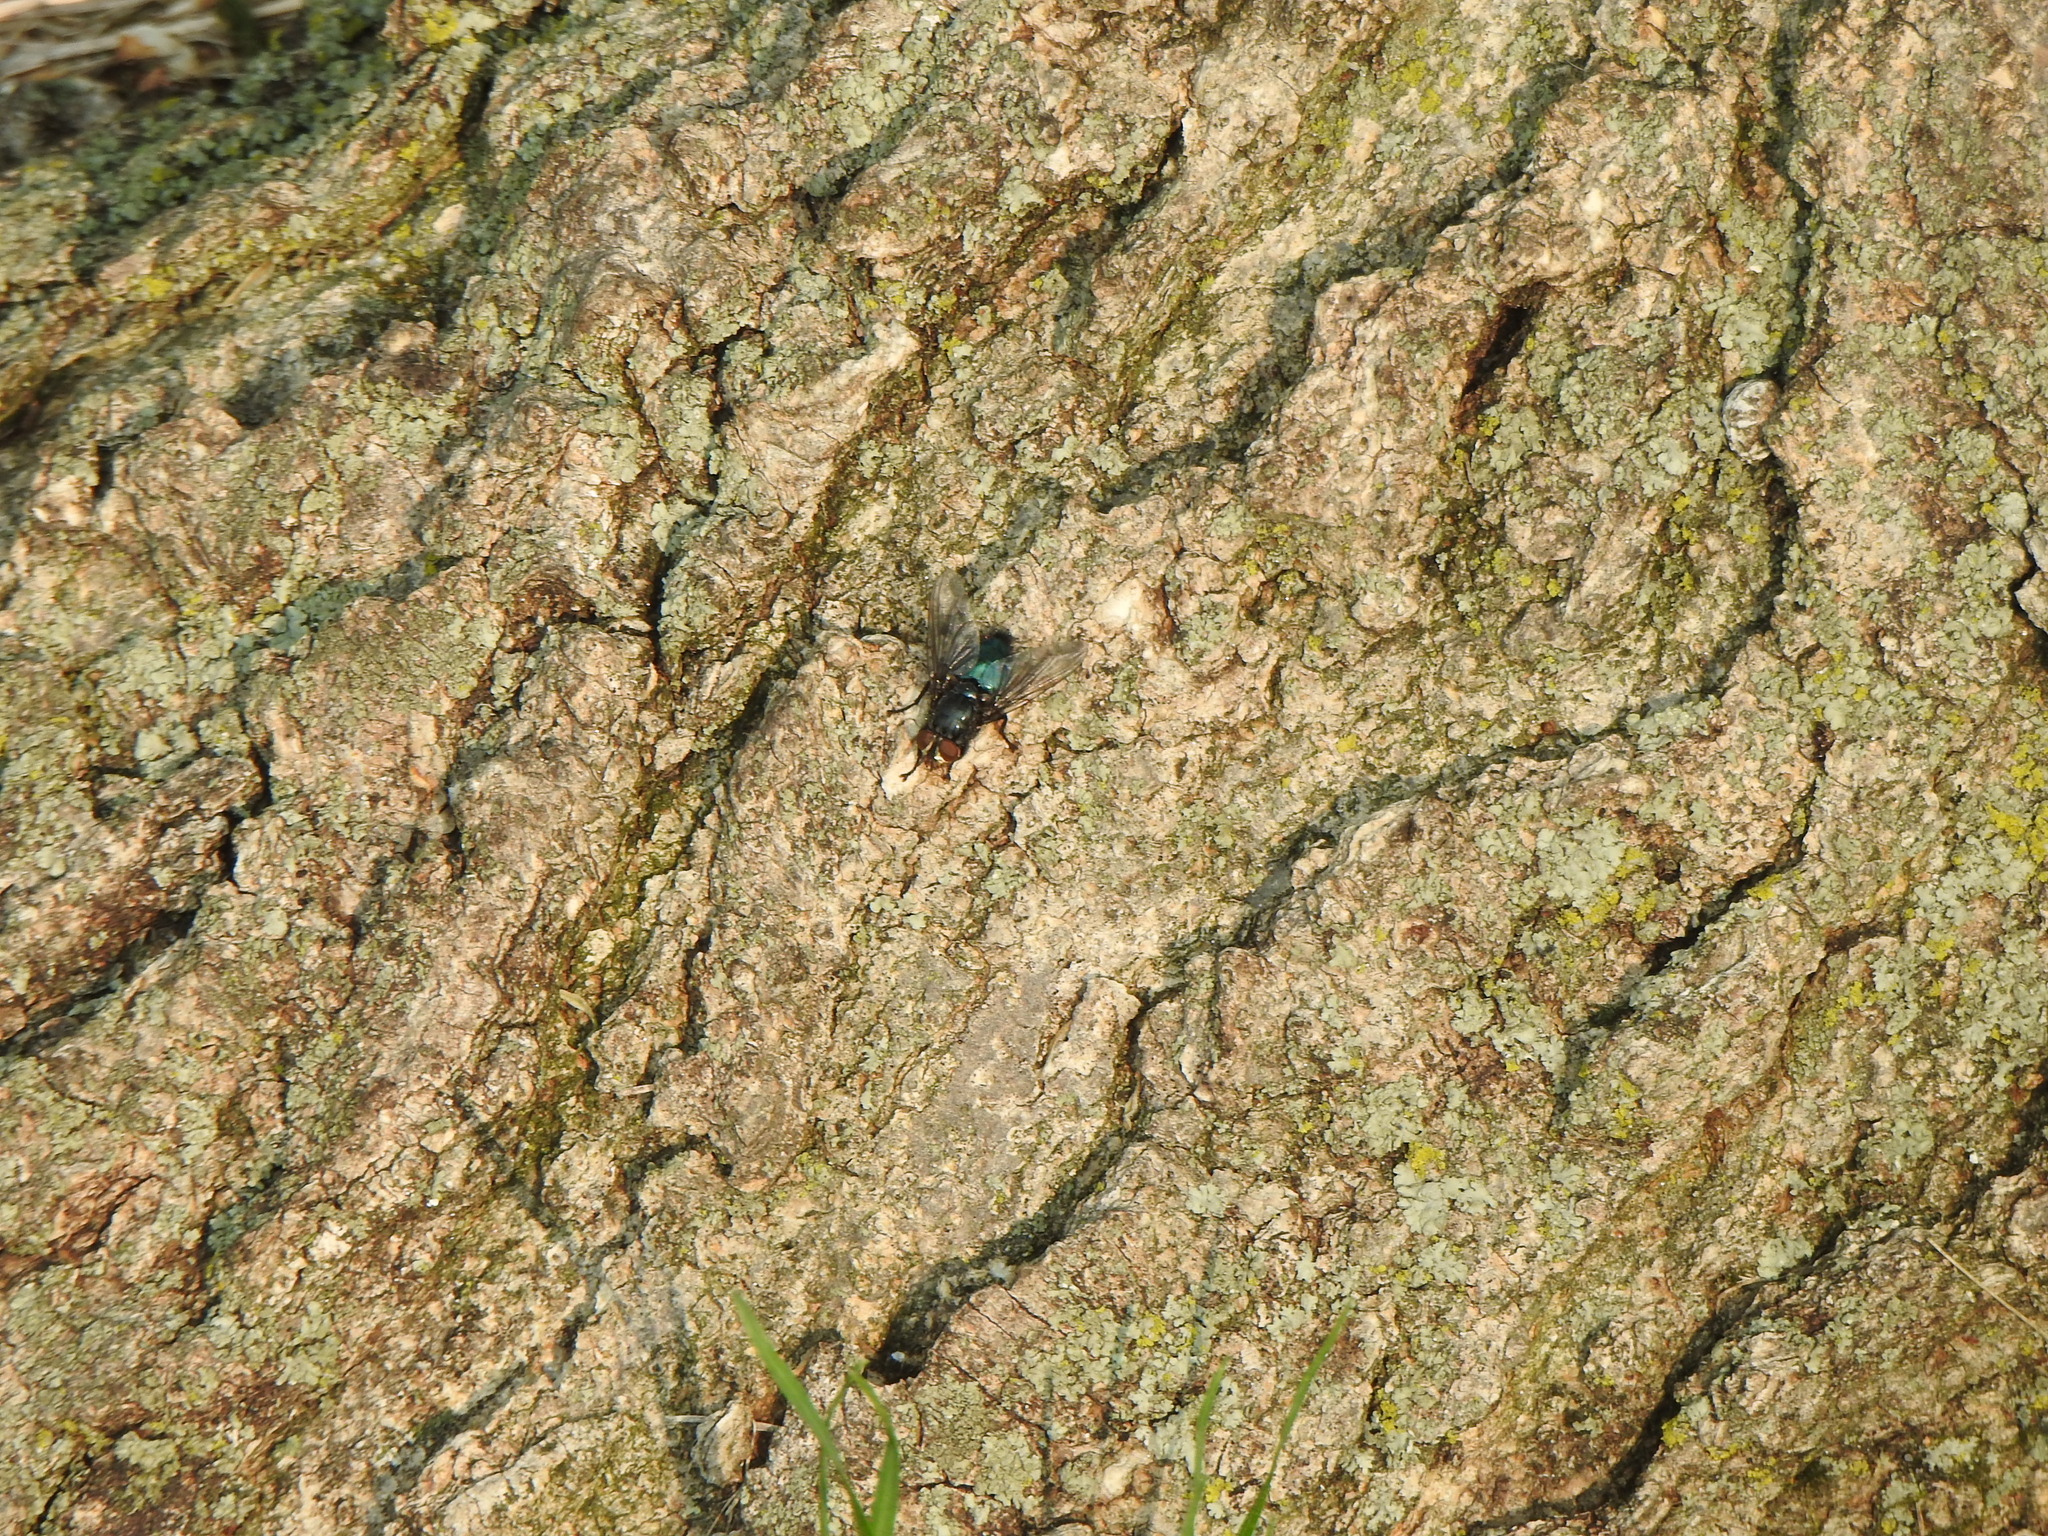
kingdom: Animalia
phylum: Arthropoda
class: Insecta
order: Diptera
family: Calliphoridae
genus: Cynomya
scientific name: Cynomya cadaverina
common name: Shiny blue bottle fly
